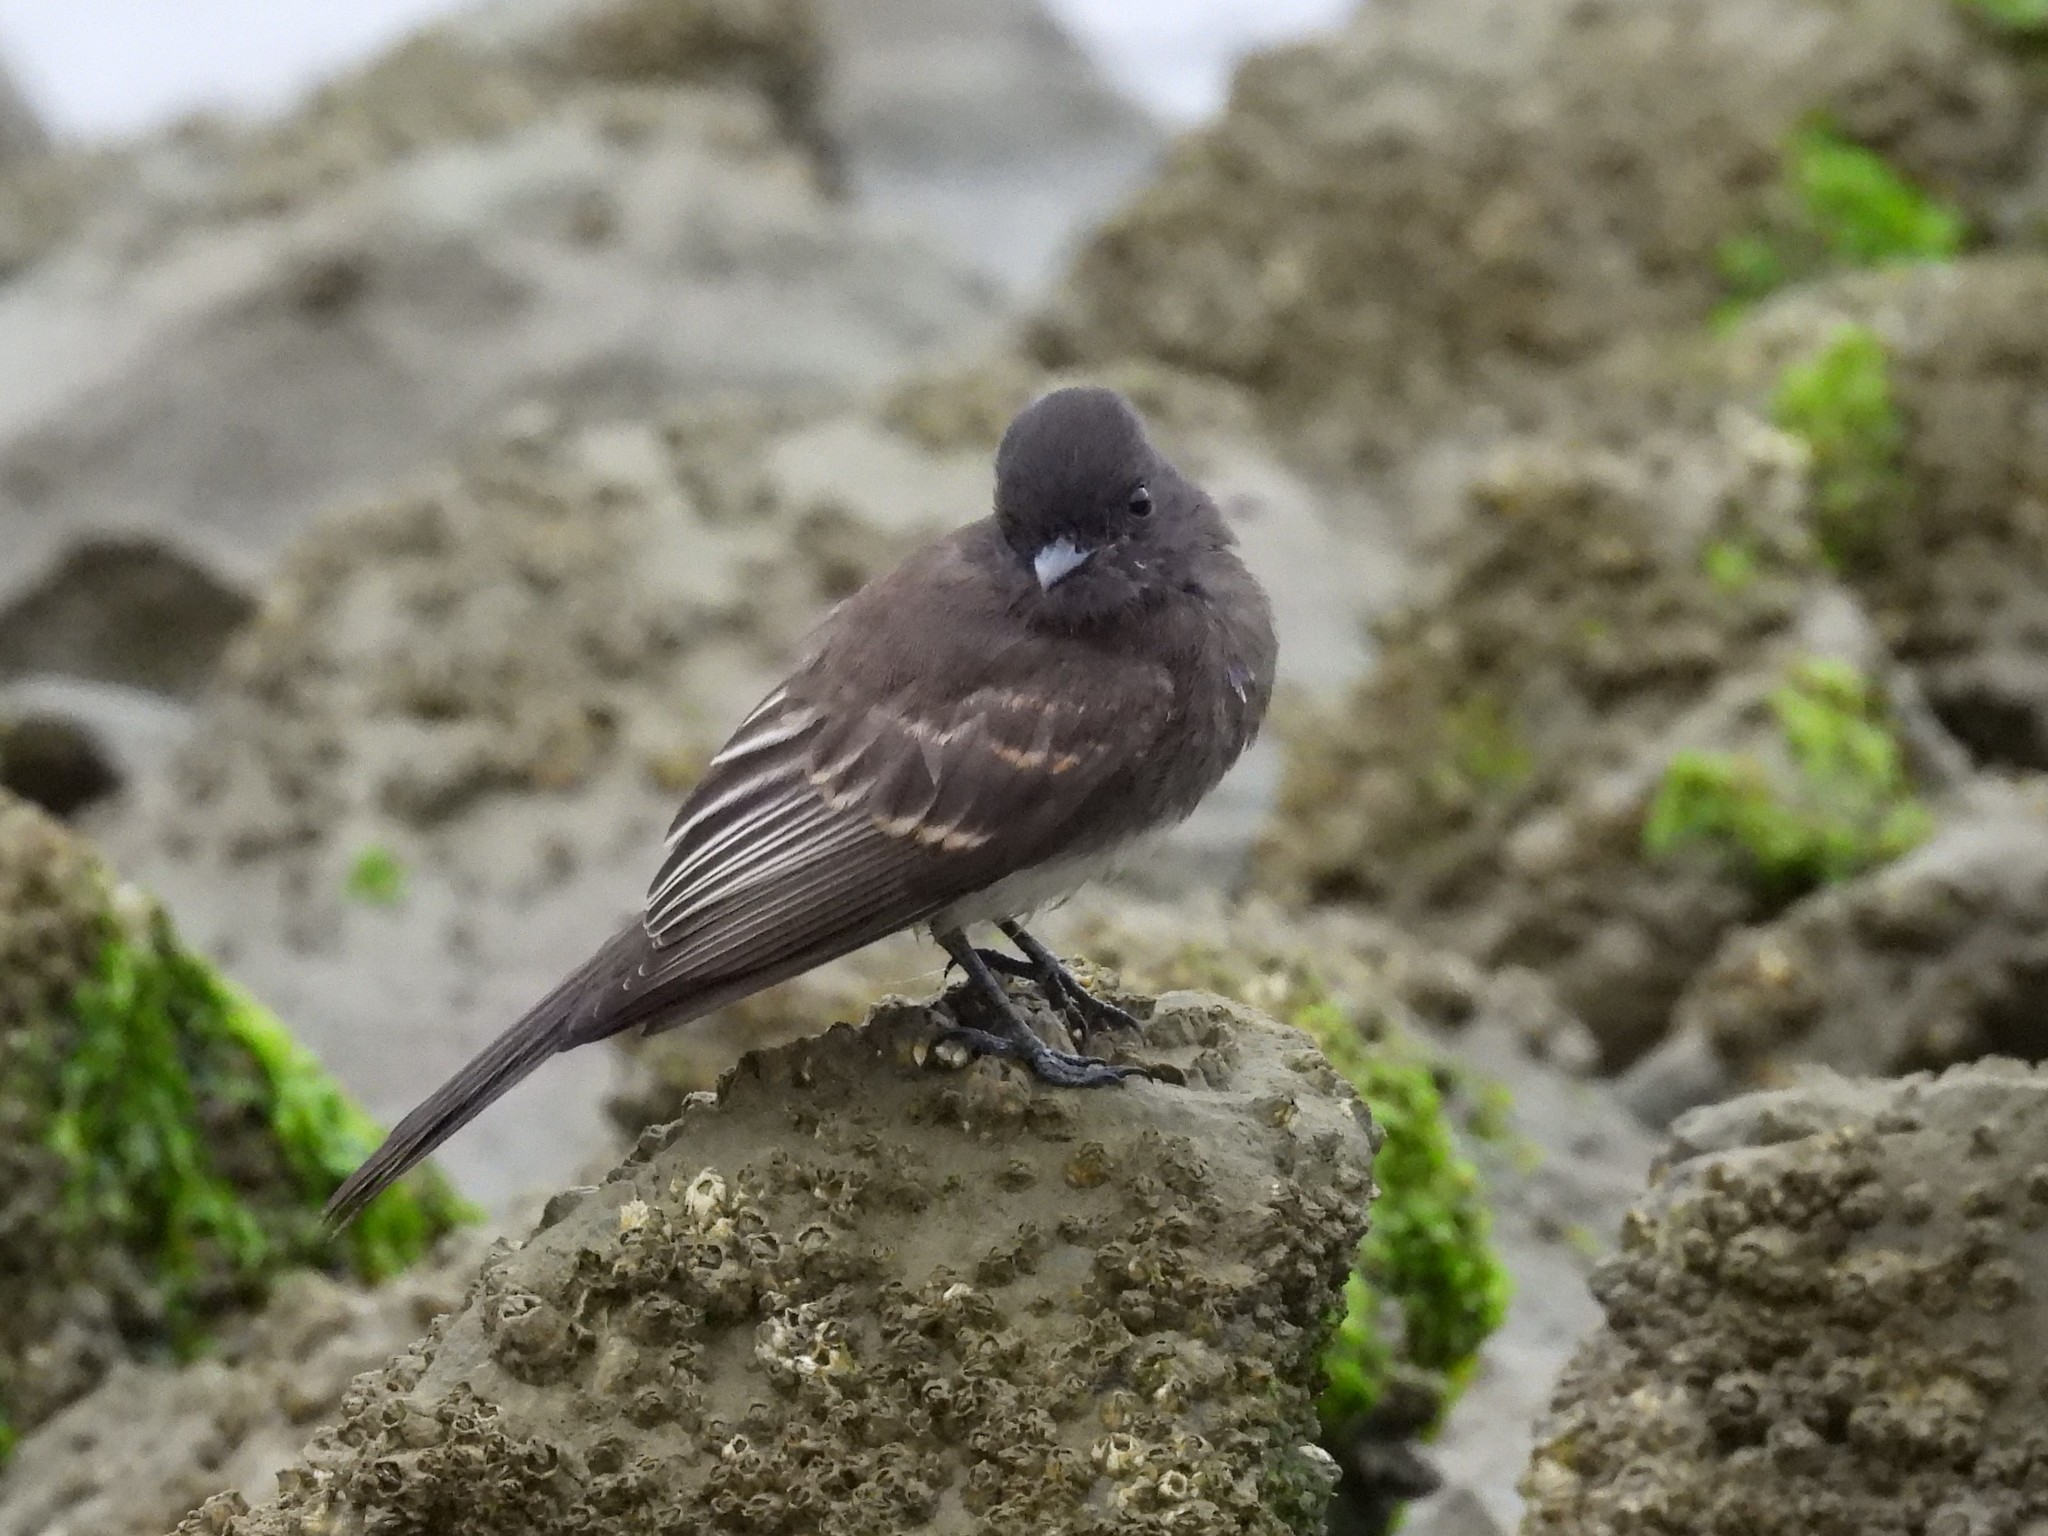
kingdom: Animalia
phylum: Chordata
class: Aves
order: Passeriformes
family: Tyrannidae
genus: Sayornis
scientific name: Sayornis nigricans
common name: Black phoebe
